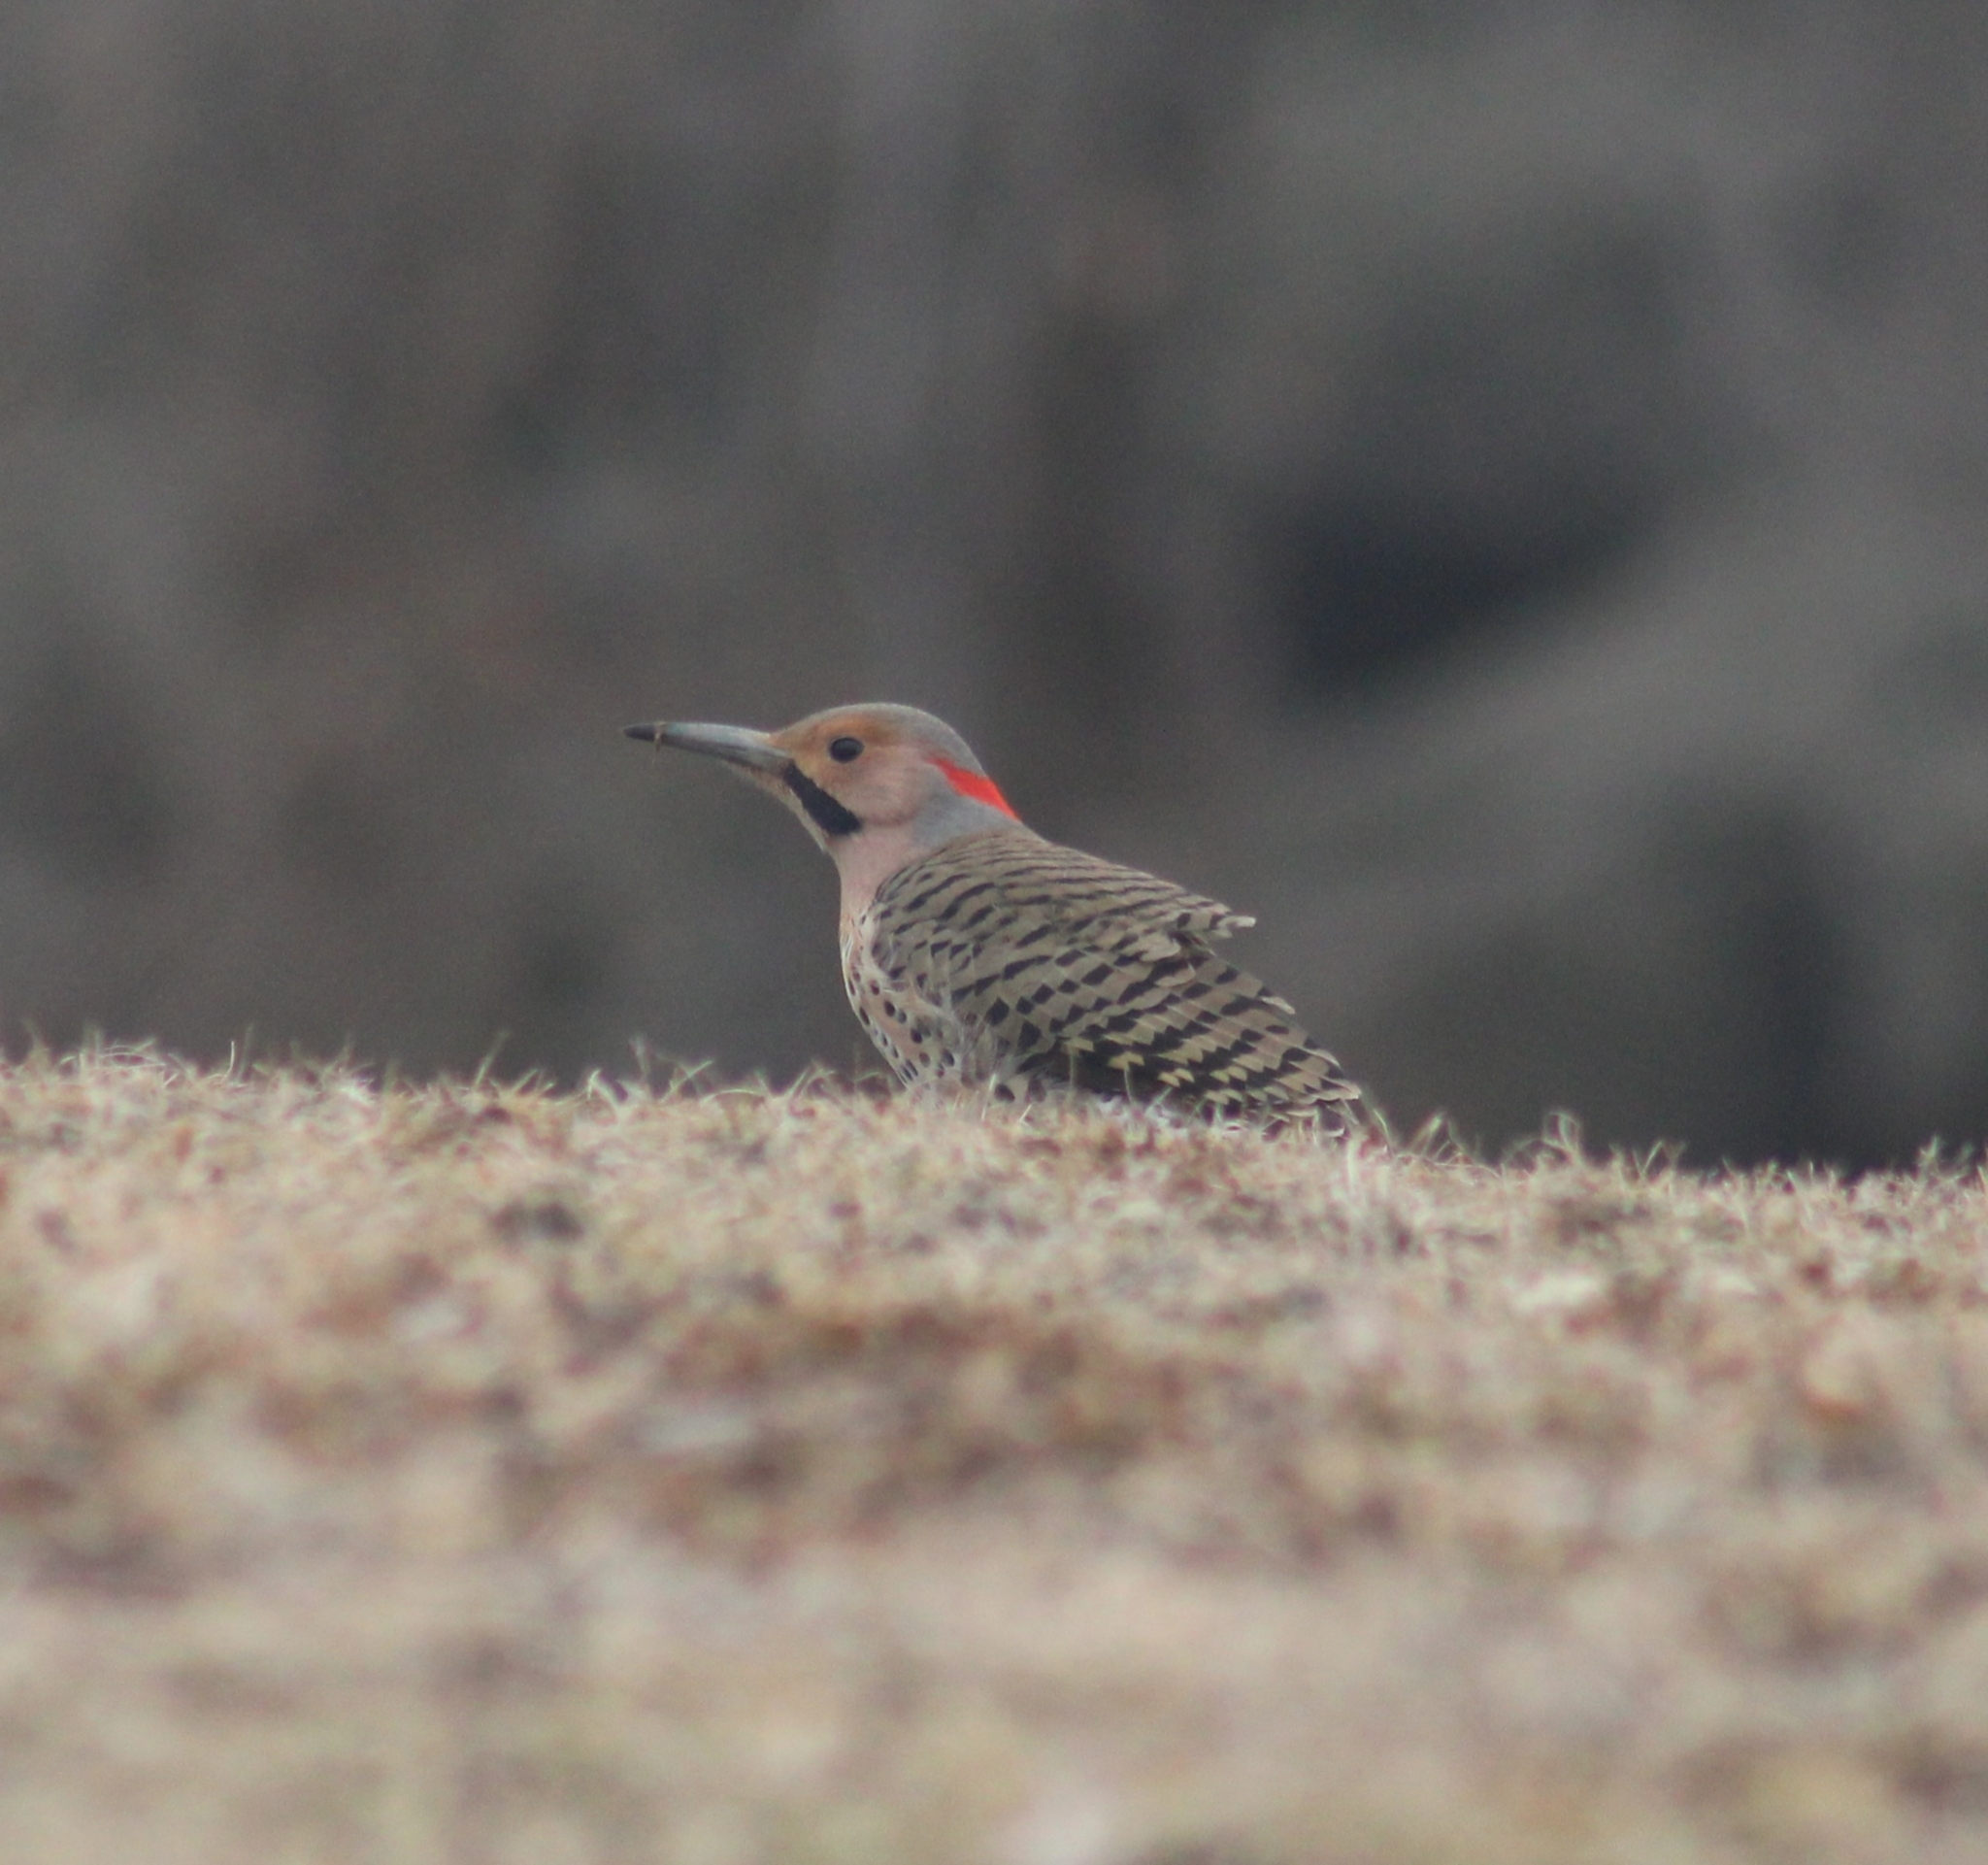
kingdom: Animalia
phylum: Chordata
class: Aves
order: Piciformes
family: Picidae
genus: Colaptes
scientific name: Colaptes auratus
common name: Northern flicker
